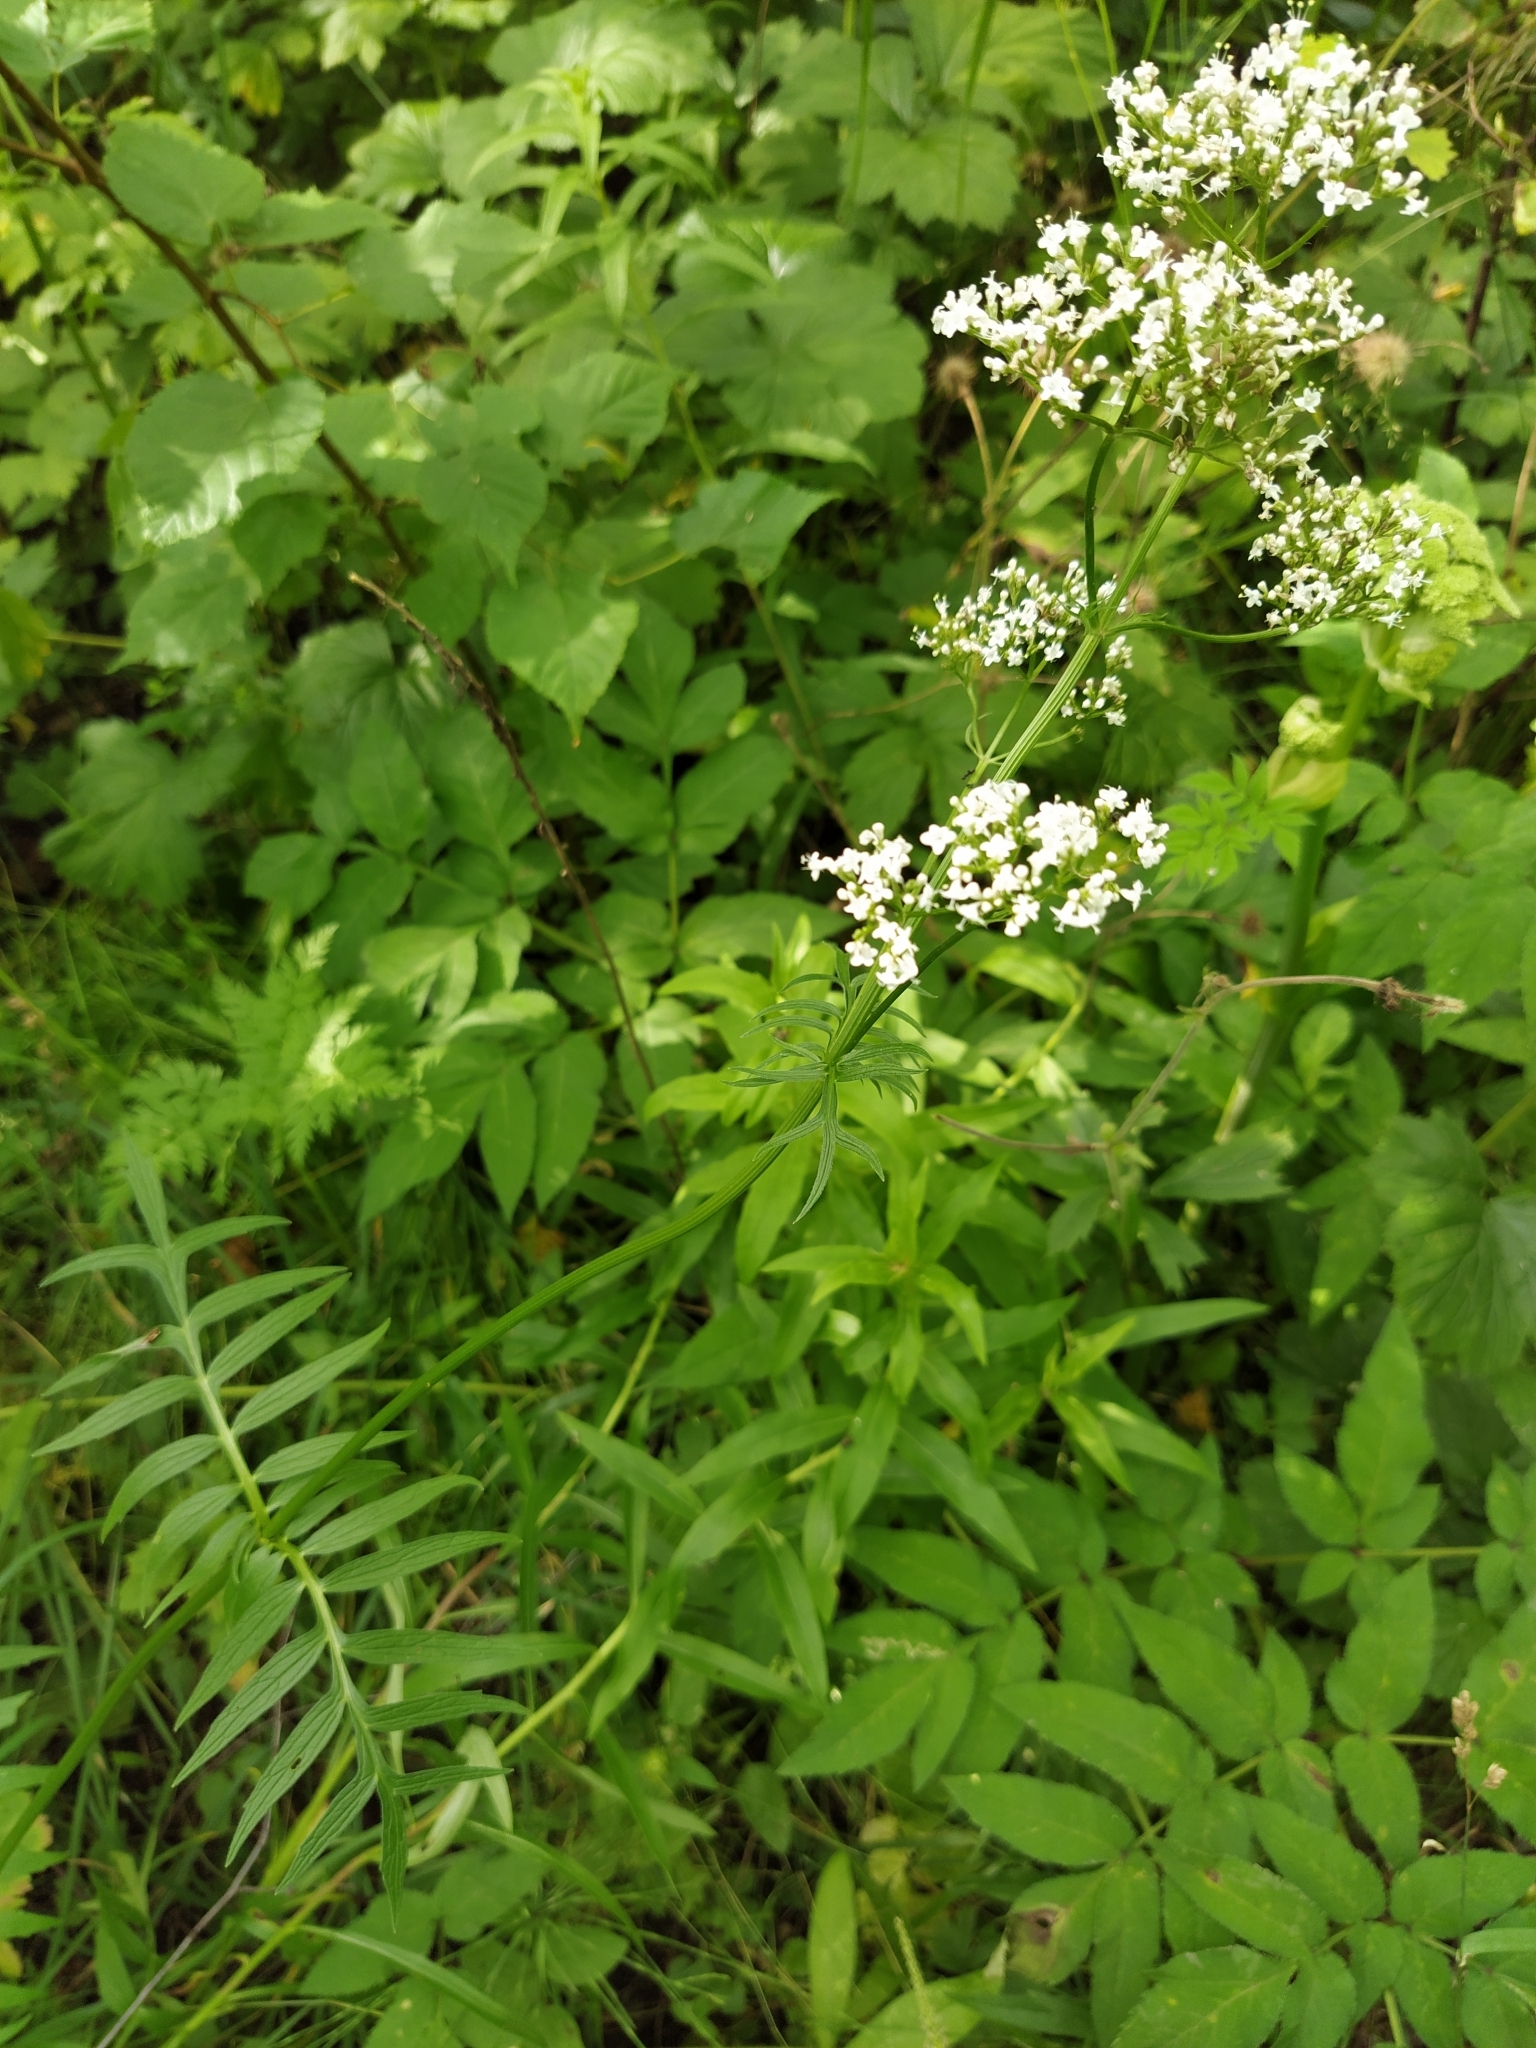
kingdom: Plantae
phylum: Tracheophyta
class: Magnoliopsida
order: Dipsacales
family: Caprifoliaceae
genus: Valeriana
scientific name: Valeriana officinalis
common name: Common valerian
